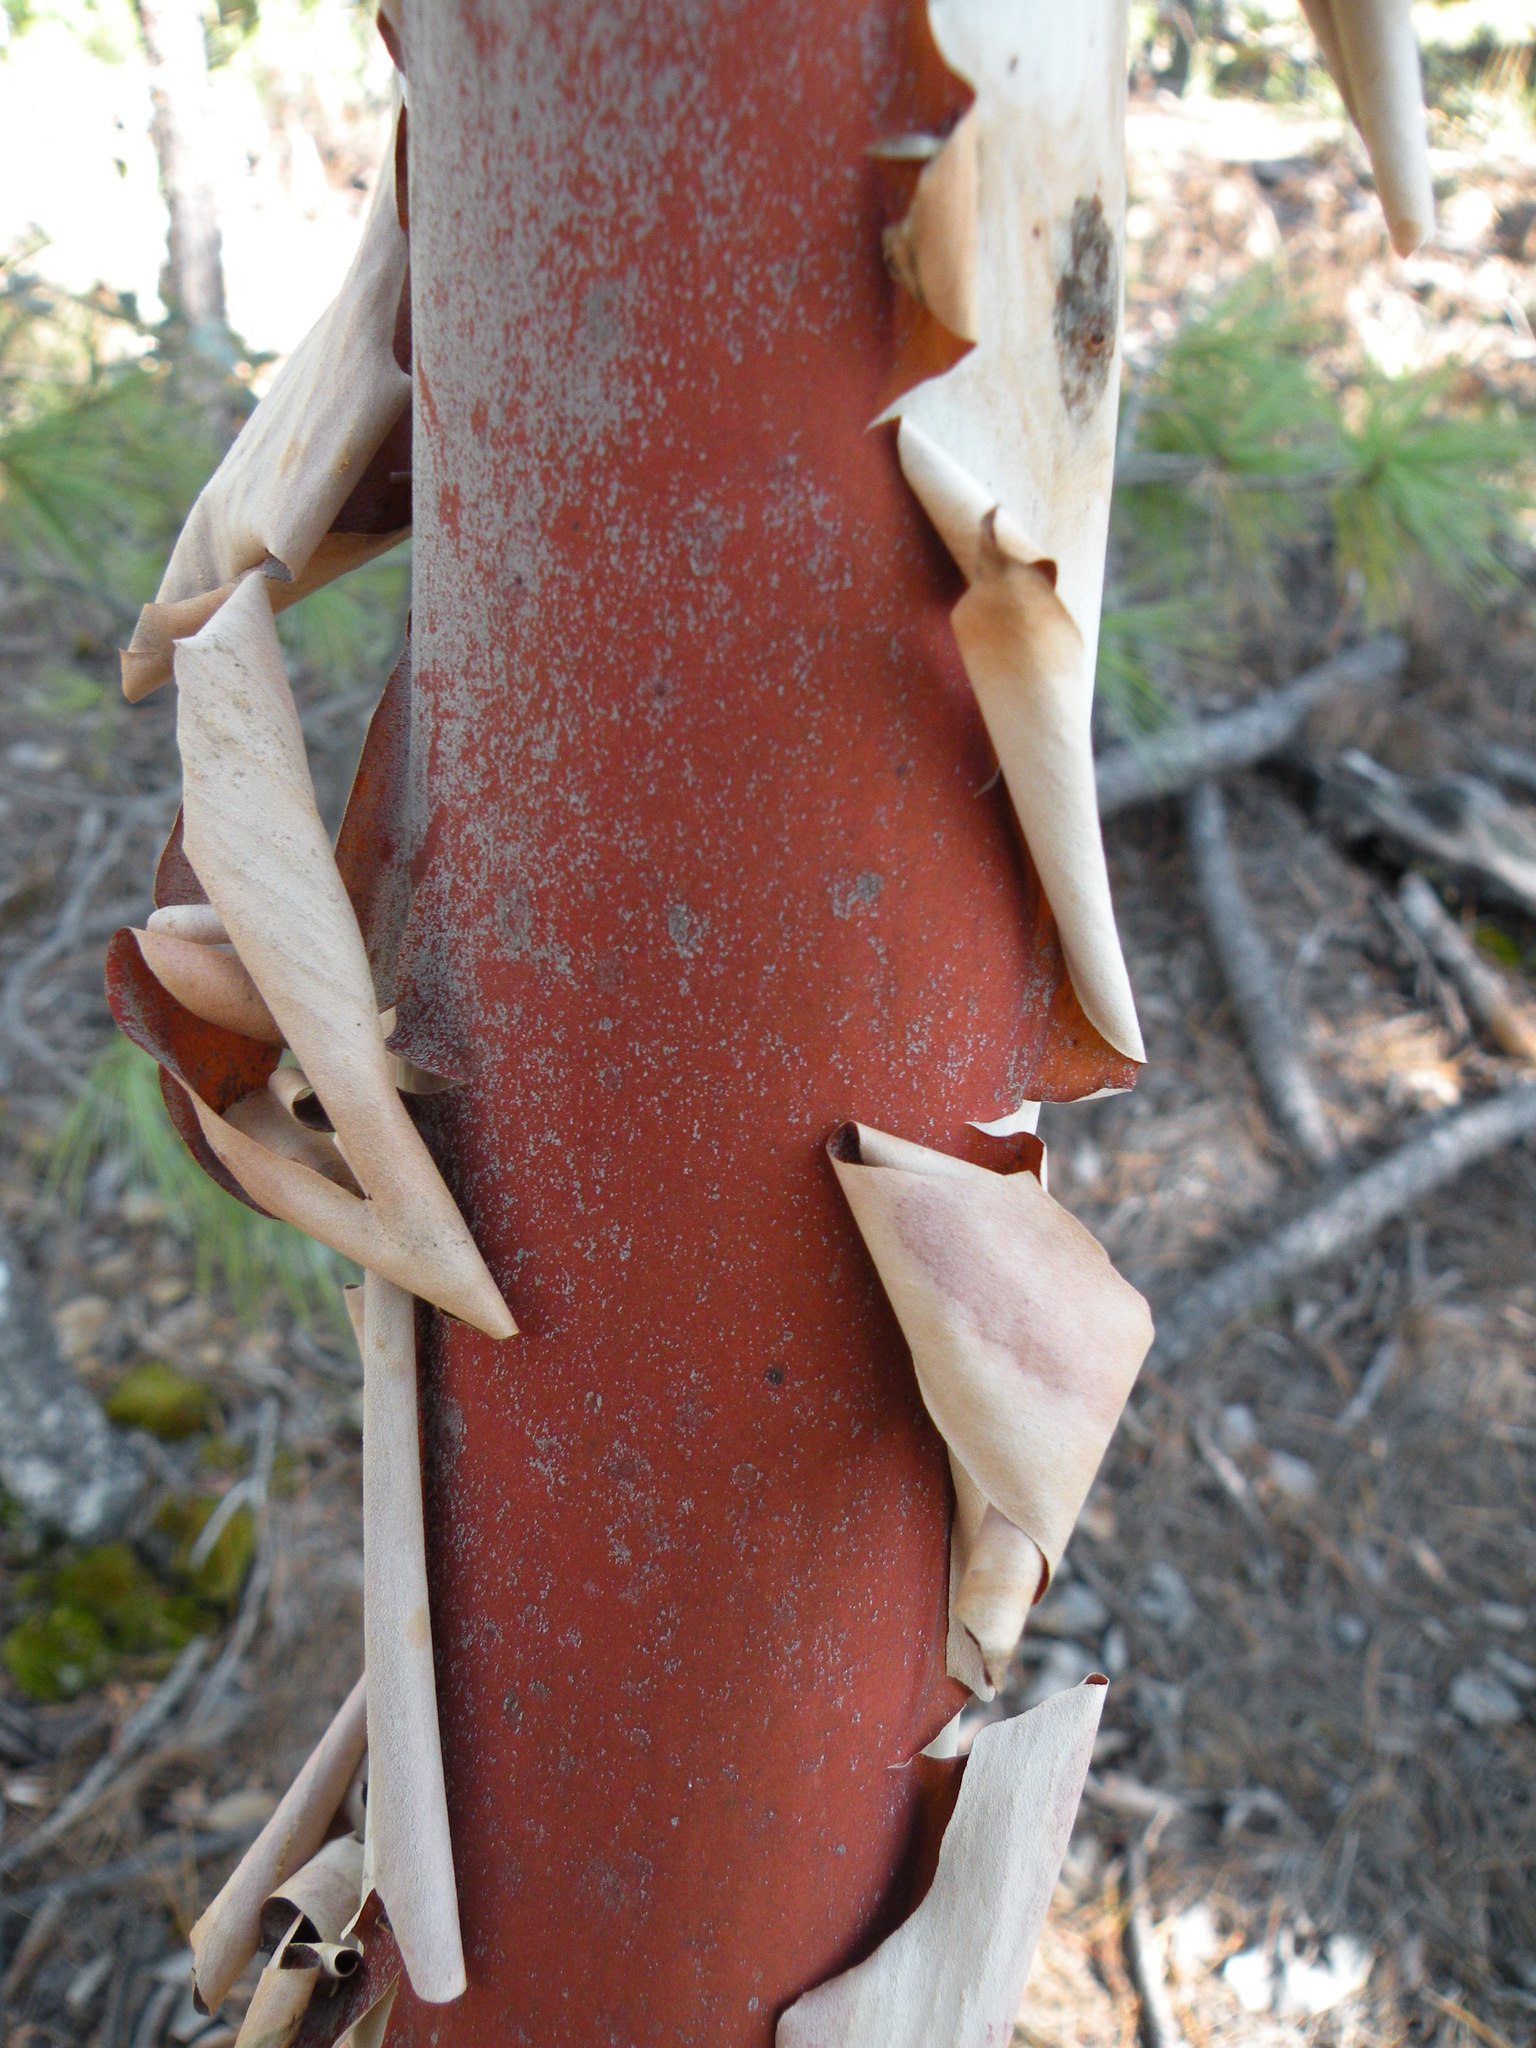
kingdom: Plantae
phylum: Tracheophyta
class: Magnoliopsida
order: Ericales
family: Ericaceae
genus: Arbutus
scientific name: Arbutus bicolor
